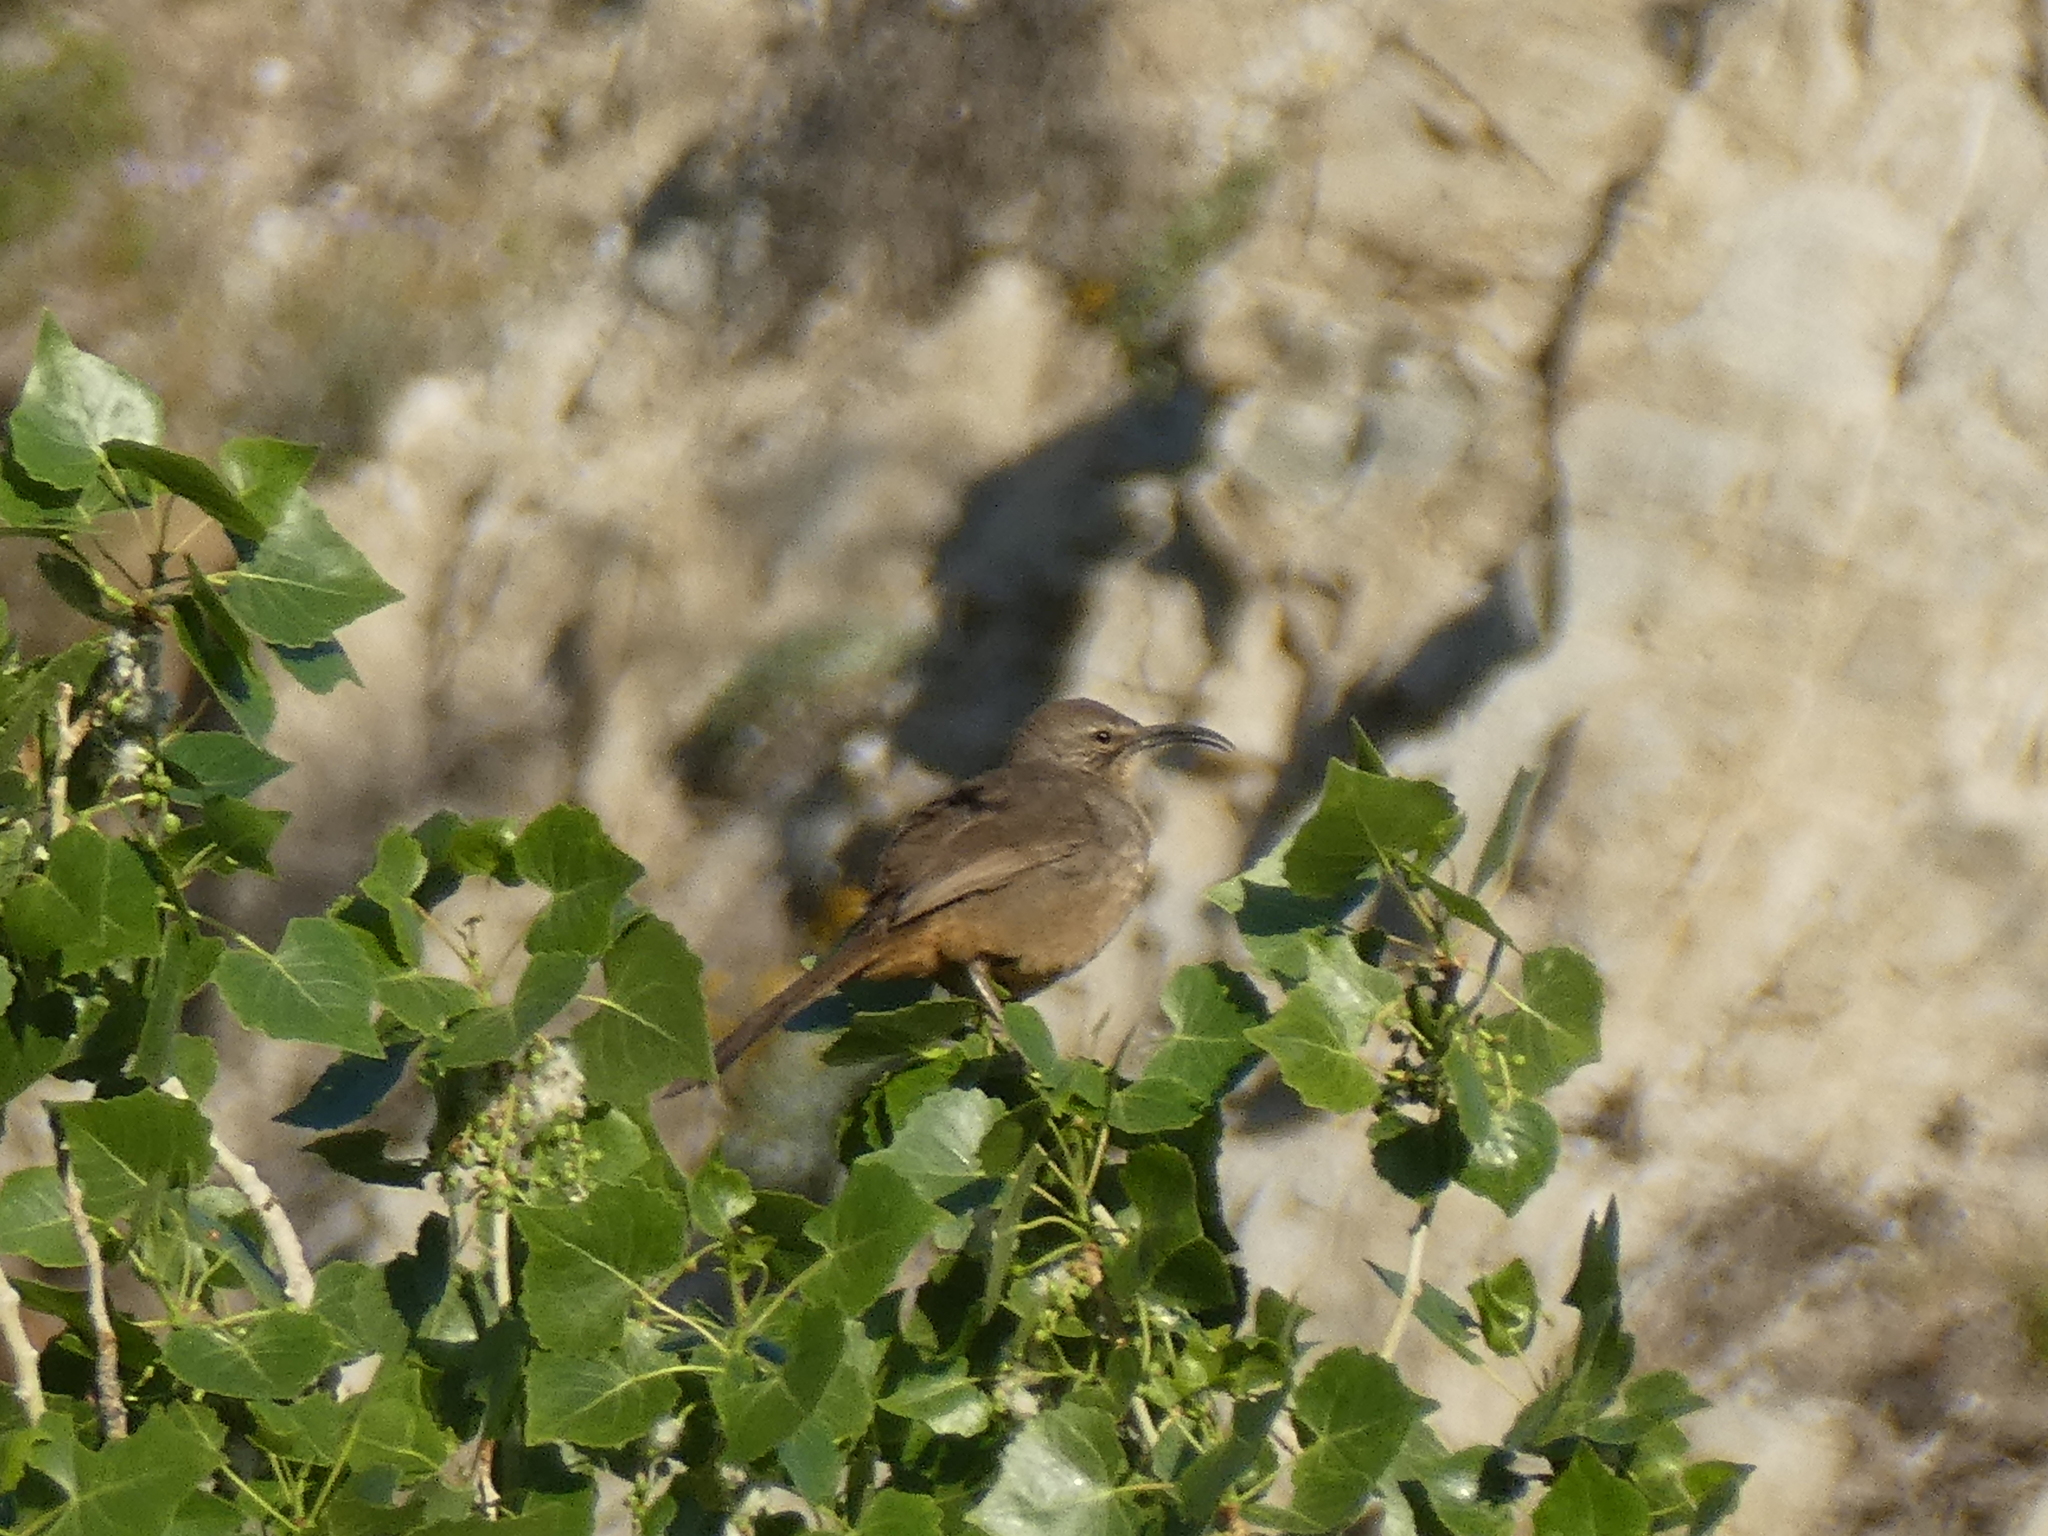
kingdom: Animalia
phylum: Chordata
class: Aves
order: Passeriformes
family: Mimidae
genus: Toxostoma
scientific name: Toxostoma redivivum
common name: California thrasher
